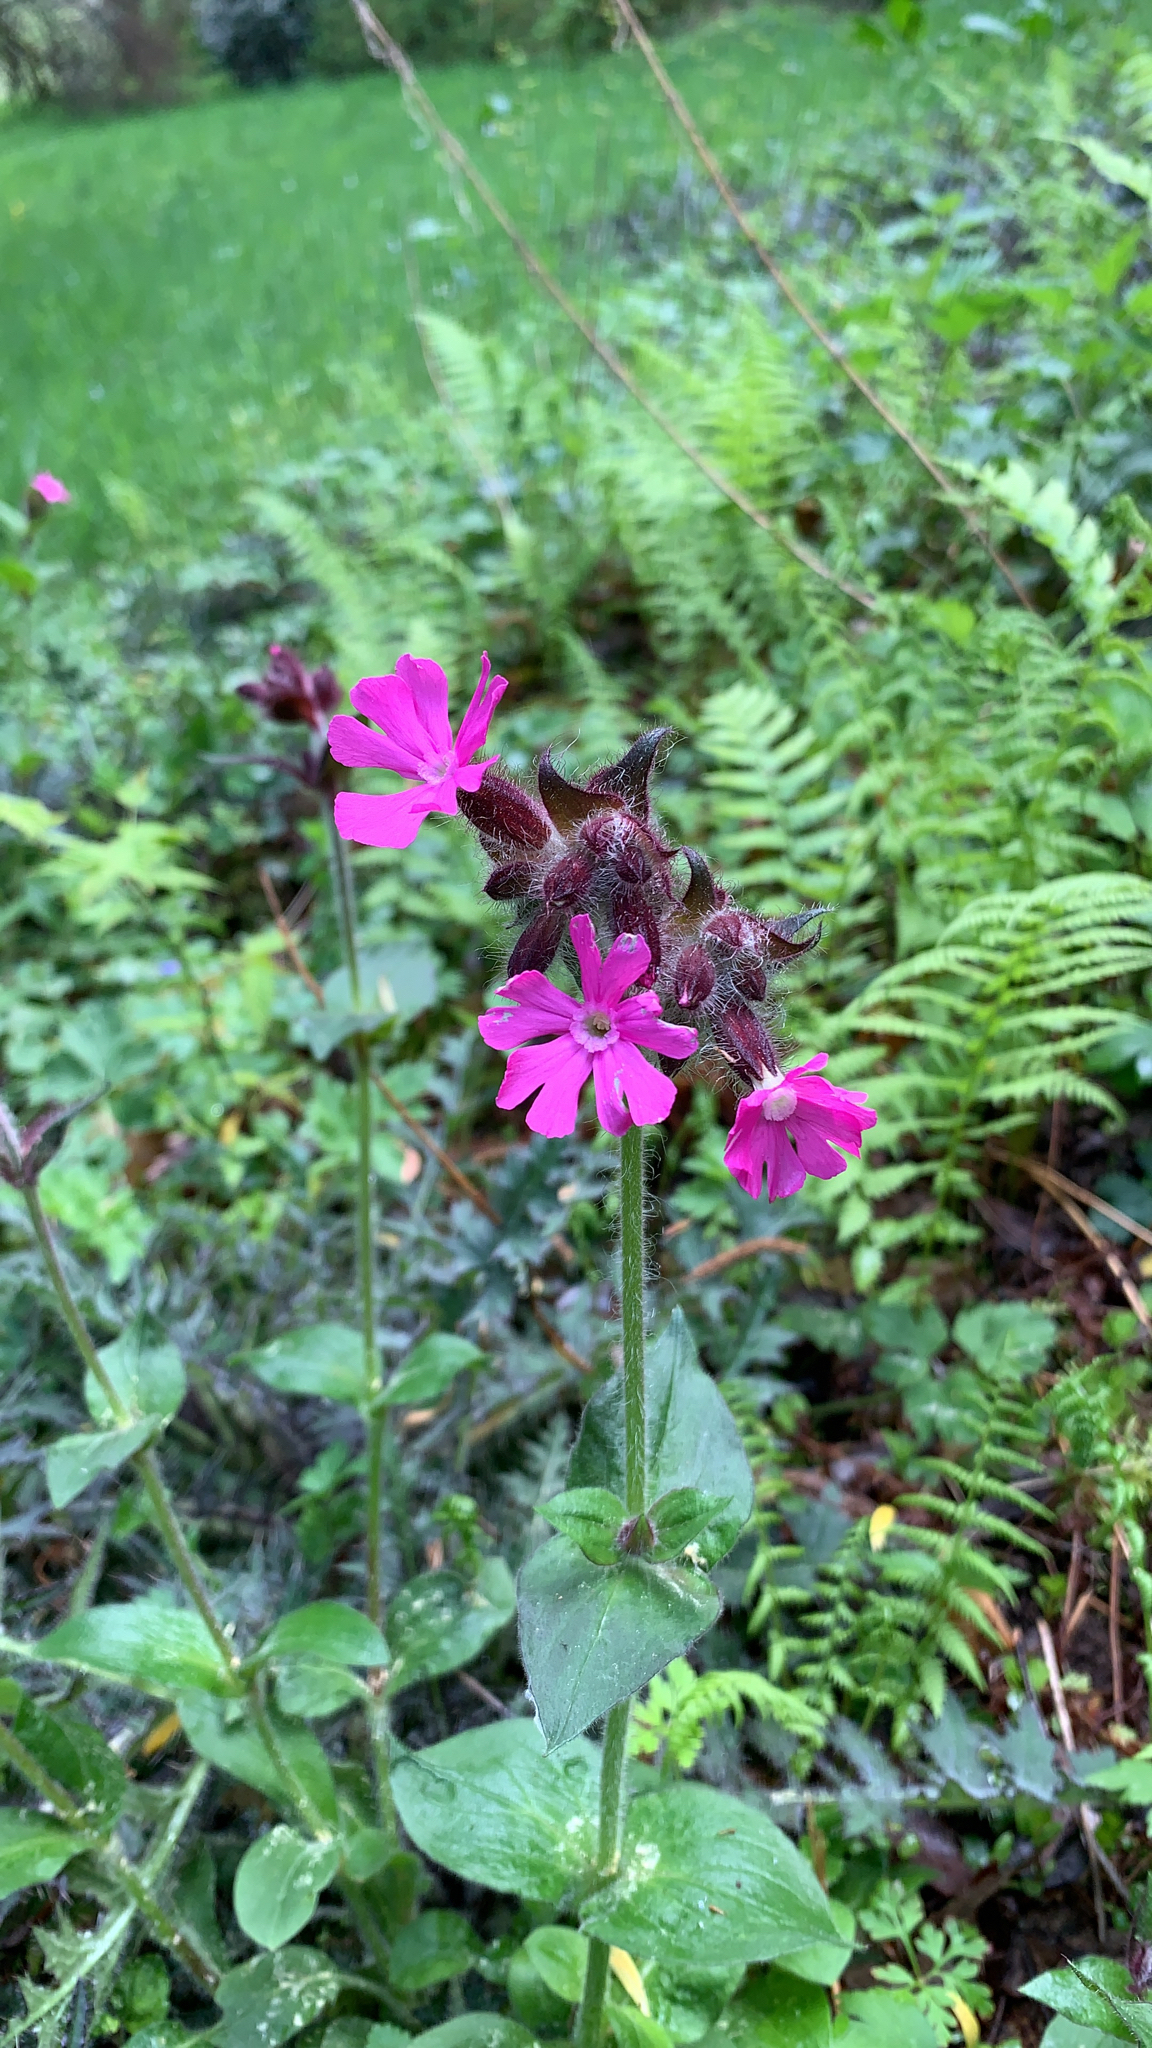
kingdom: Plantae
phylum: Tracheophyta
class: Magnoliopsida
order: Caryophyllales
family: Caryophyllaceae
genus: Silene
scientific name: Silene dioica
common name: Red campion
